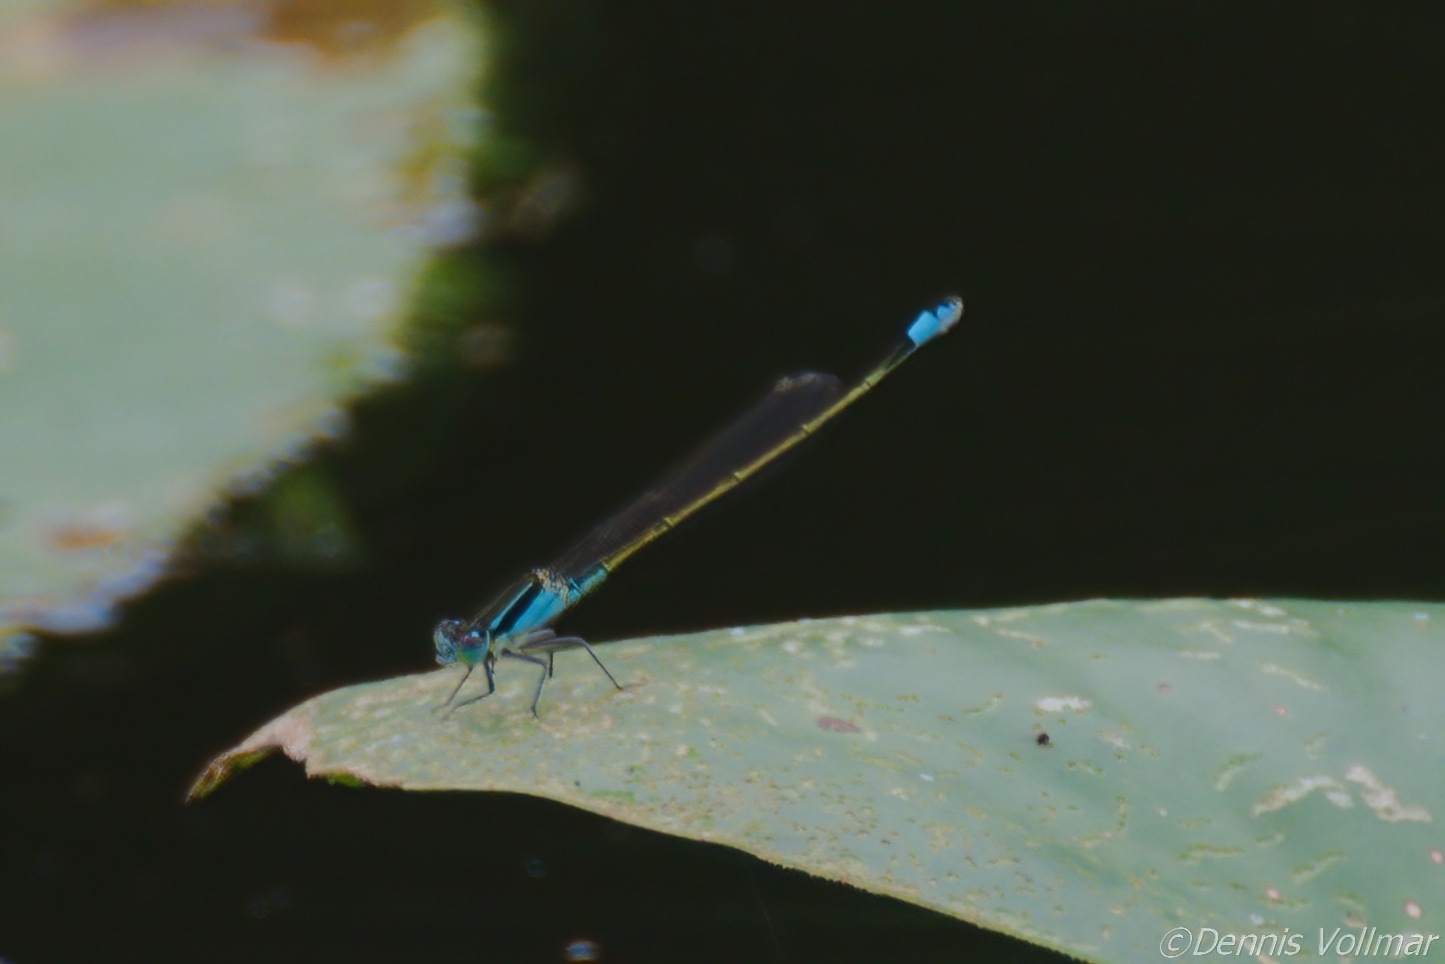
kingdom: Animalia
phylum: Arthropoda
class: Insecta
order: Odonata
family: Coenagrionidae
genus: Ischnura
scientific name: Ischnura ramburii
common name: Rambur's forktail
